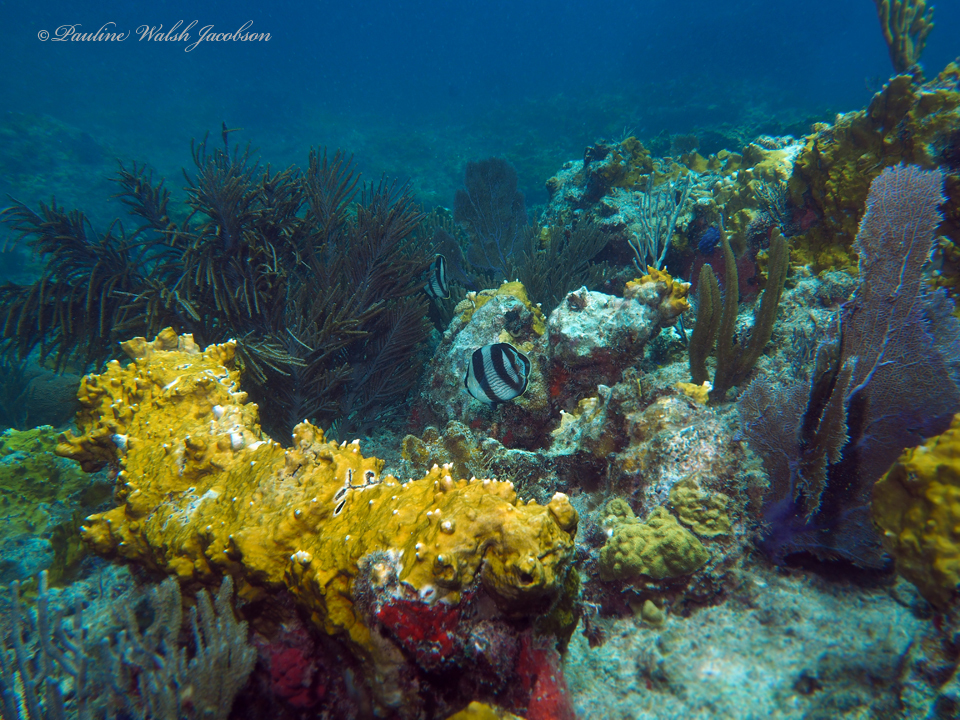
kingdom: Animalia
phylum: Chordata
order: Perciformes
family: Chaetodontidae
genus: Chaetodon
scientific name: Chaetodon striatus
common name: Banded butterflyfish
